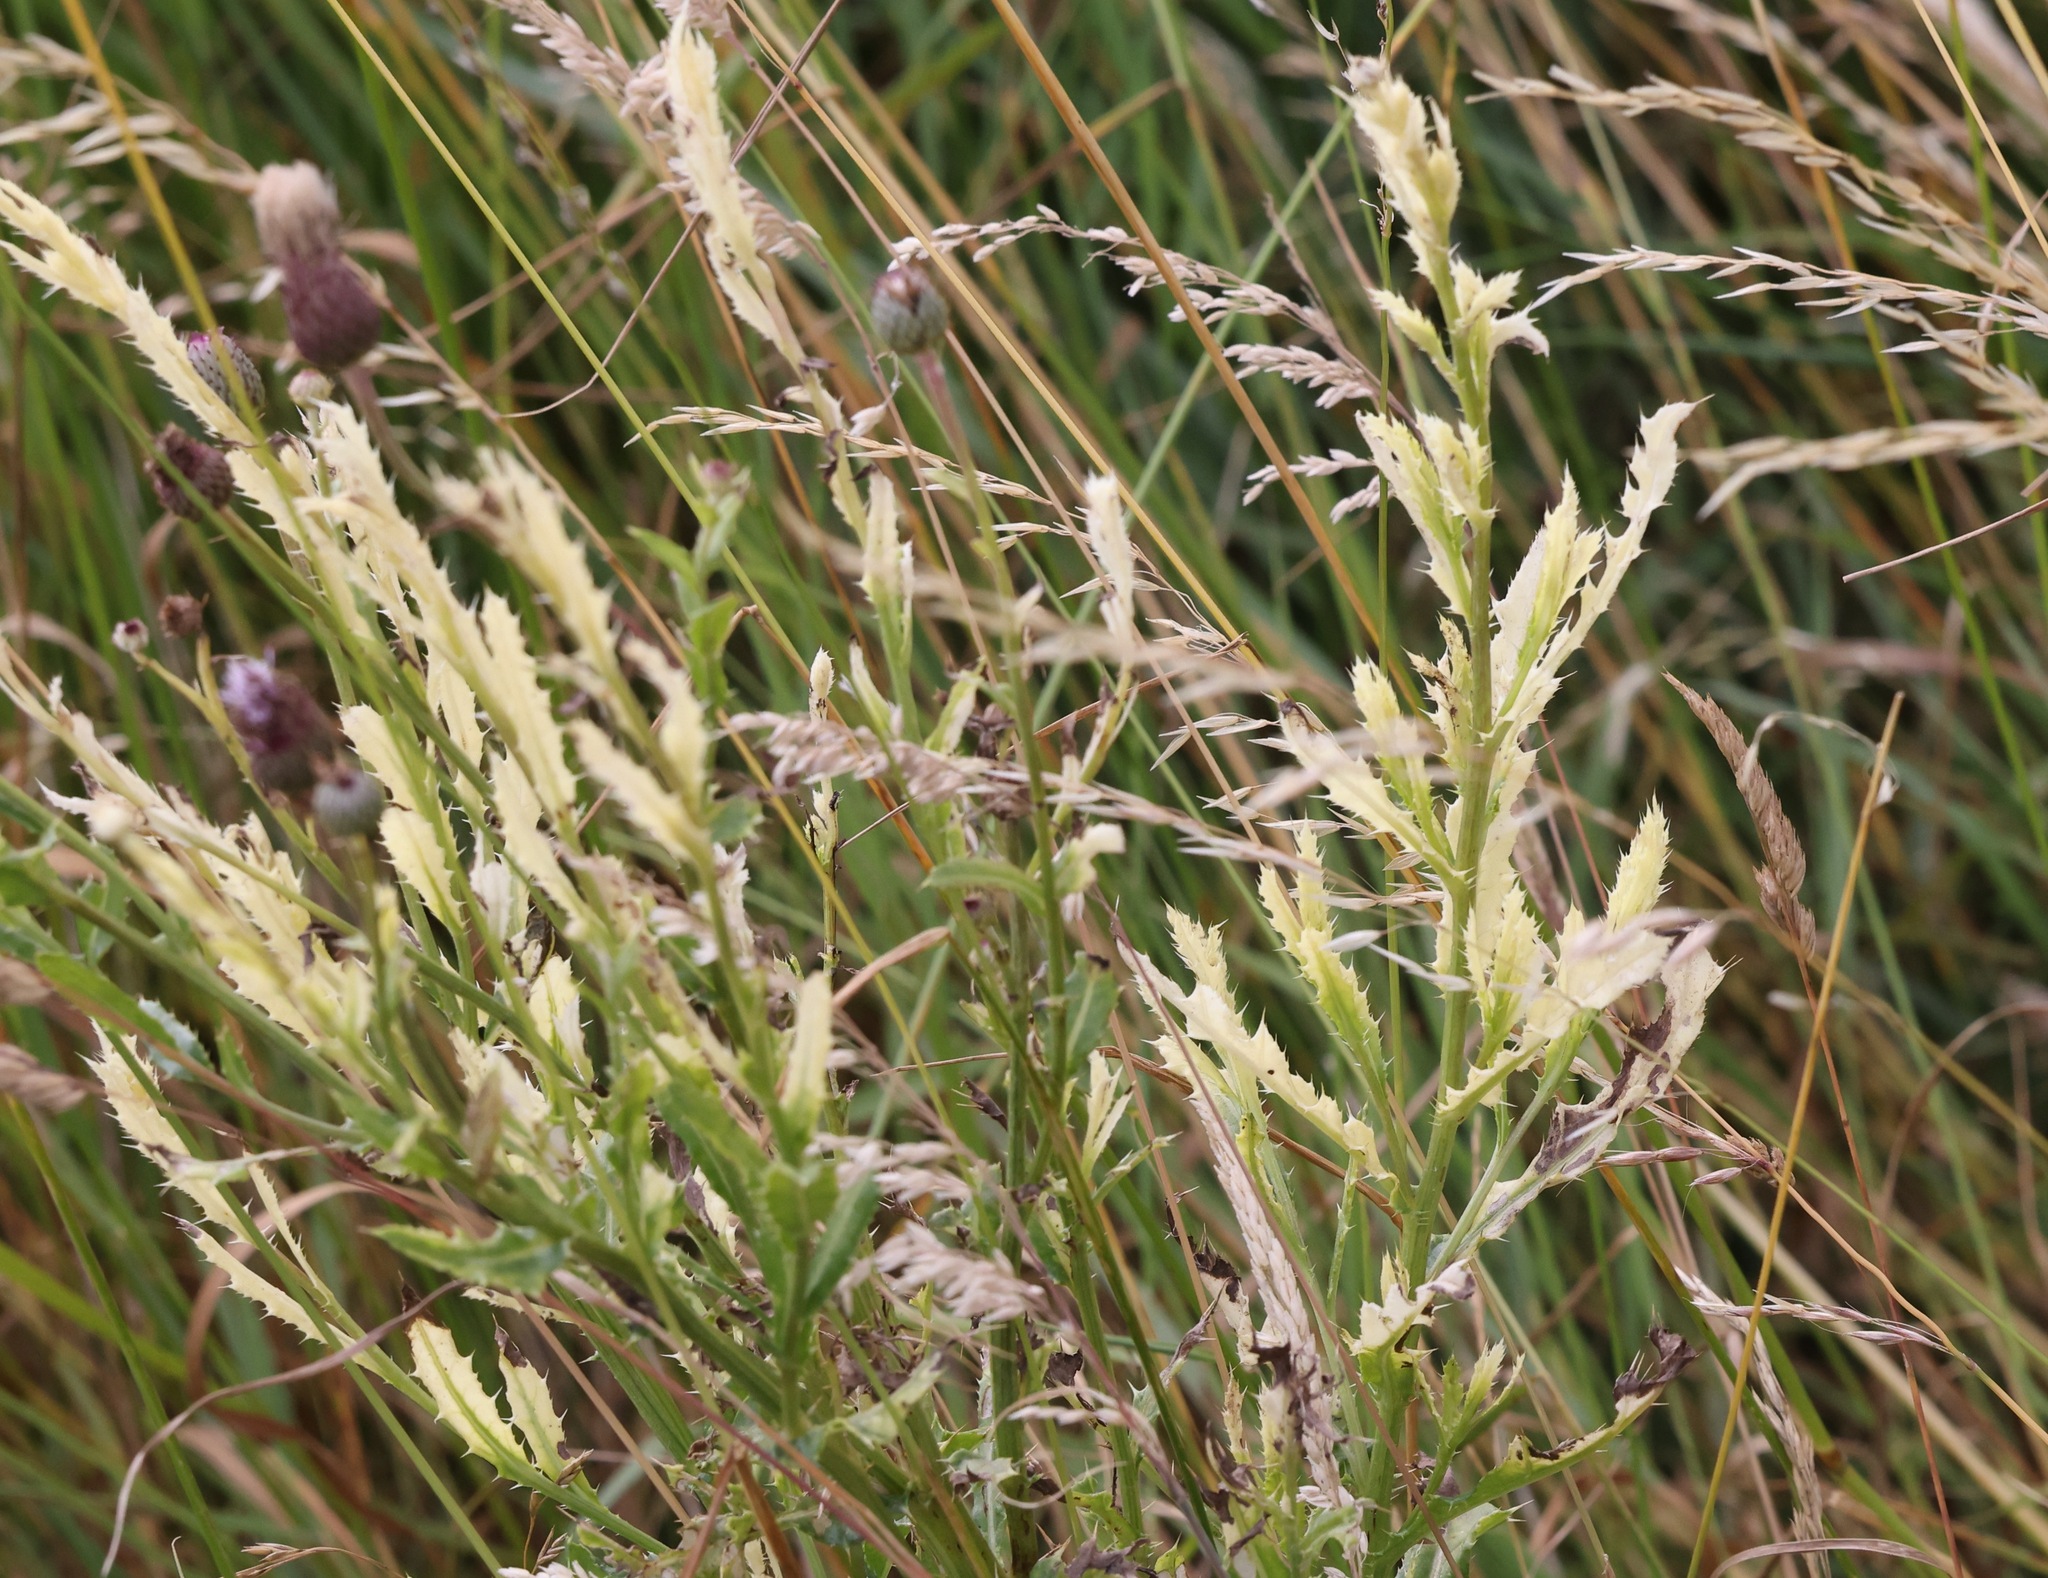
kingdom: Bacteria
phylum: Proteobacteria
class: Gammaproteobacteria
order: Pseudomonadales
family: Pseudomonadaceae
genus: Pseudomonas
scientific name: Pseudomonas syringae
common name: Bacterial speck
